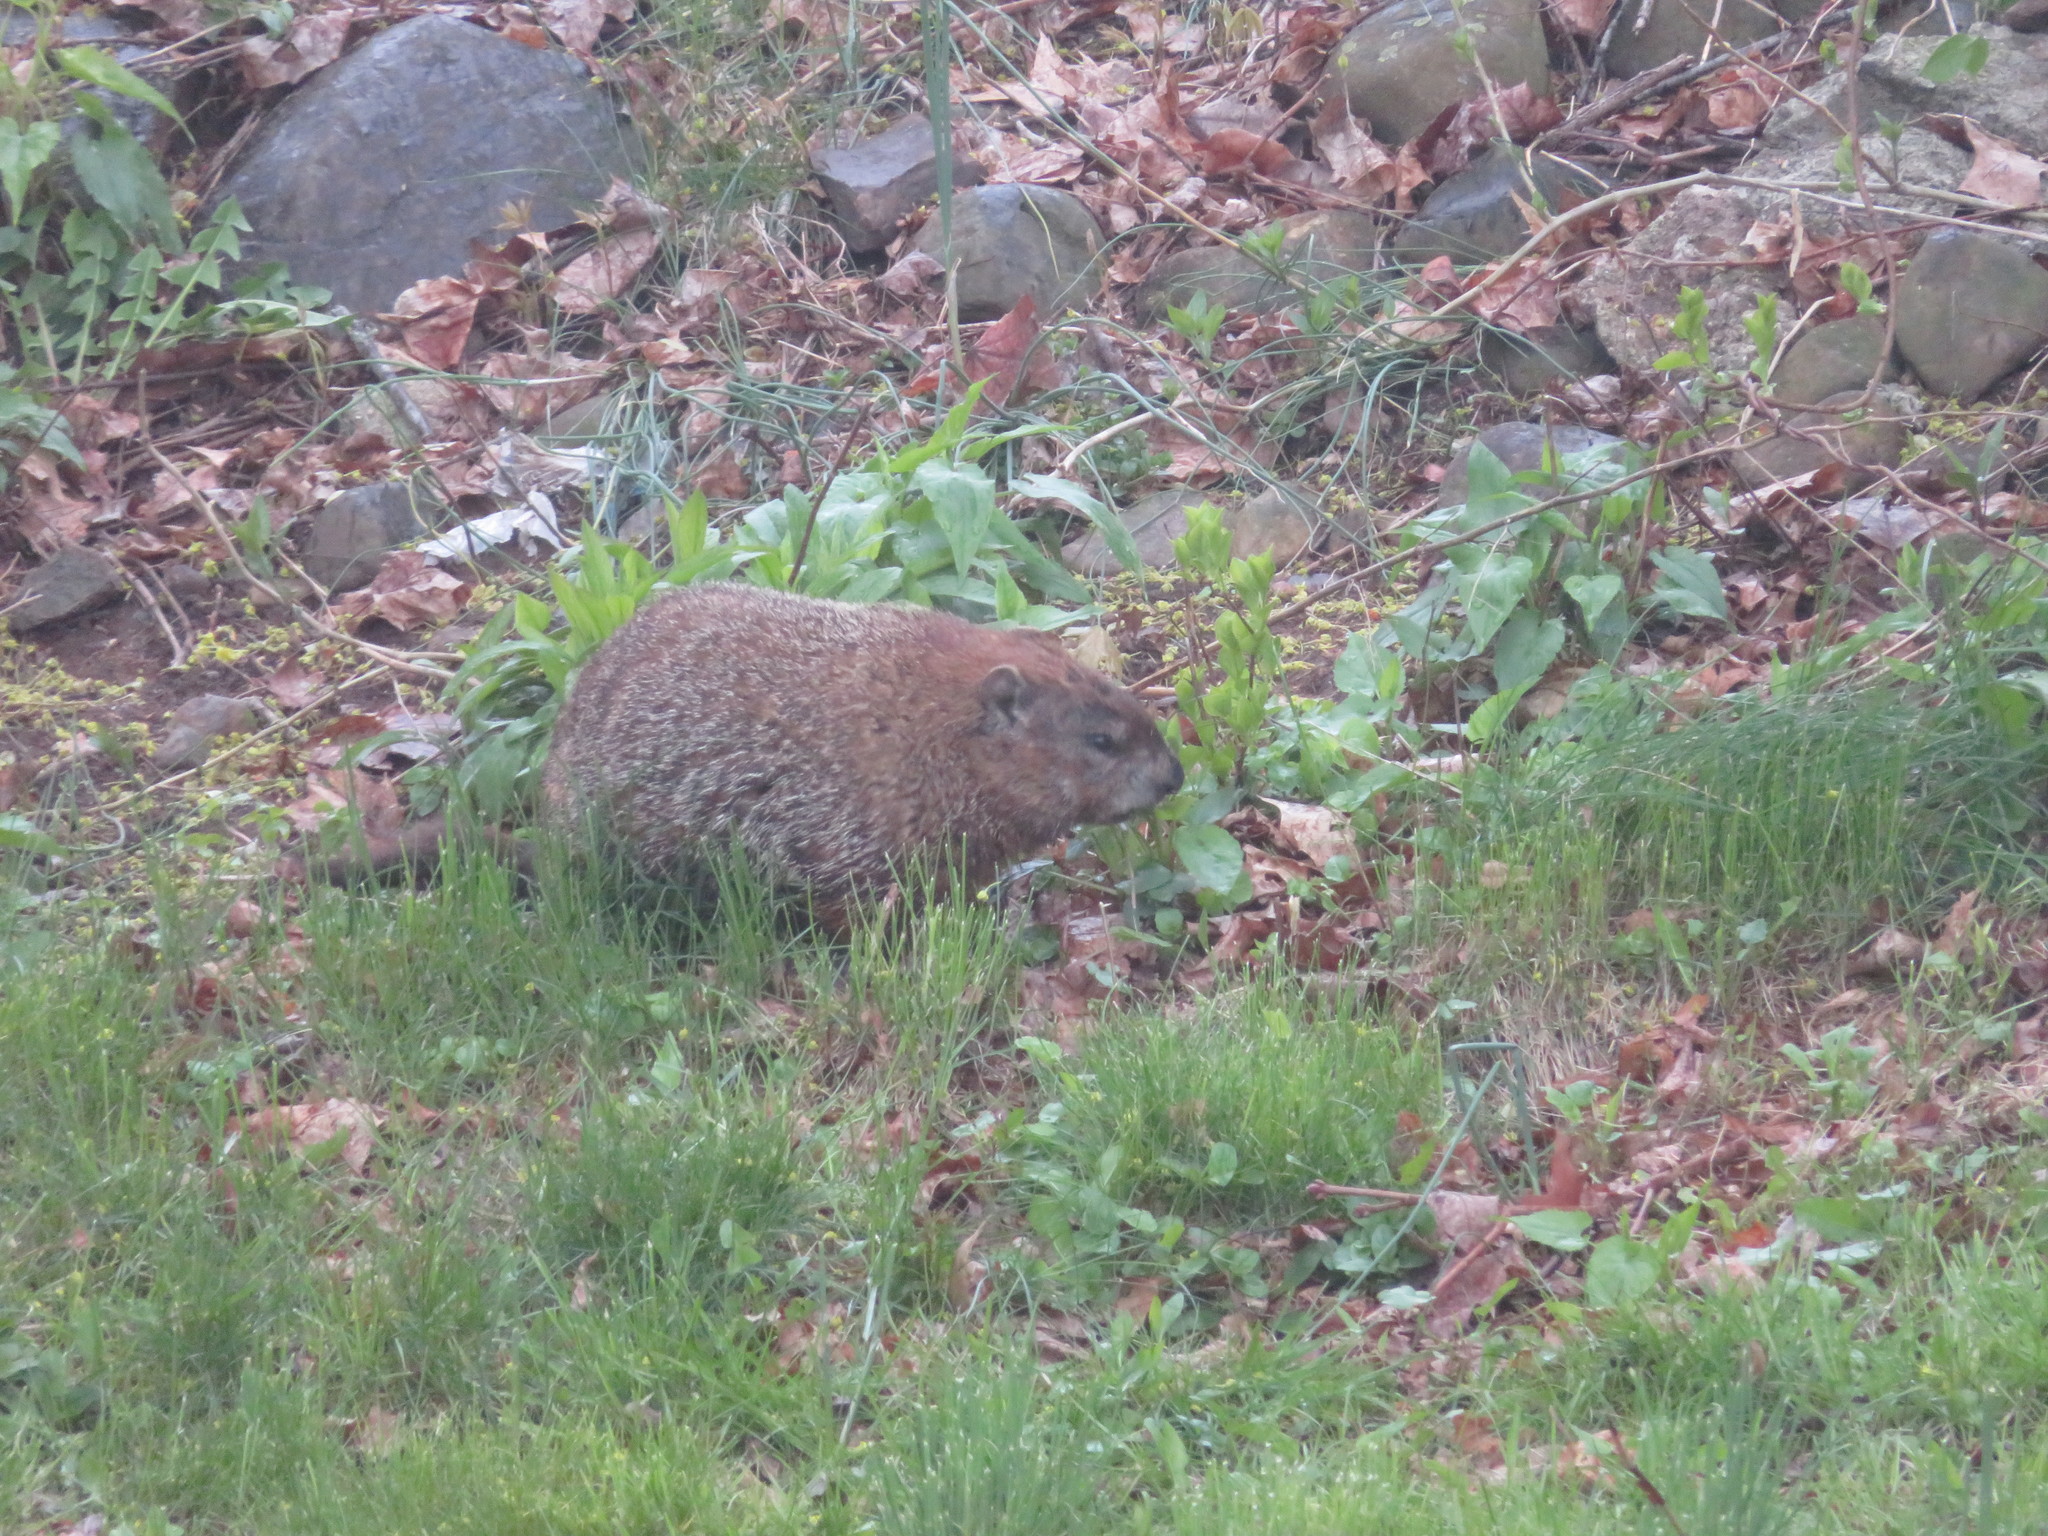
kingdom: Animalia
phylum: Chordata
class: Mammalia
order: Rodentia
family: Sciuridae
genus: Marmota
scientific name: Marmota monax
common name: Groundhog
